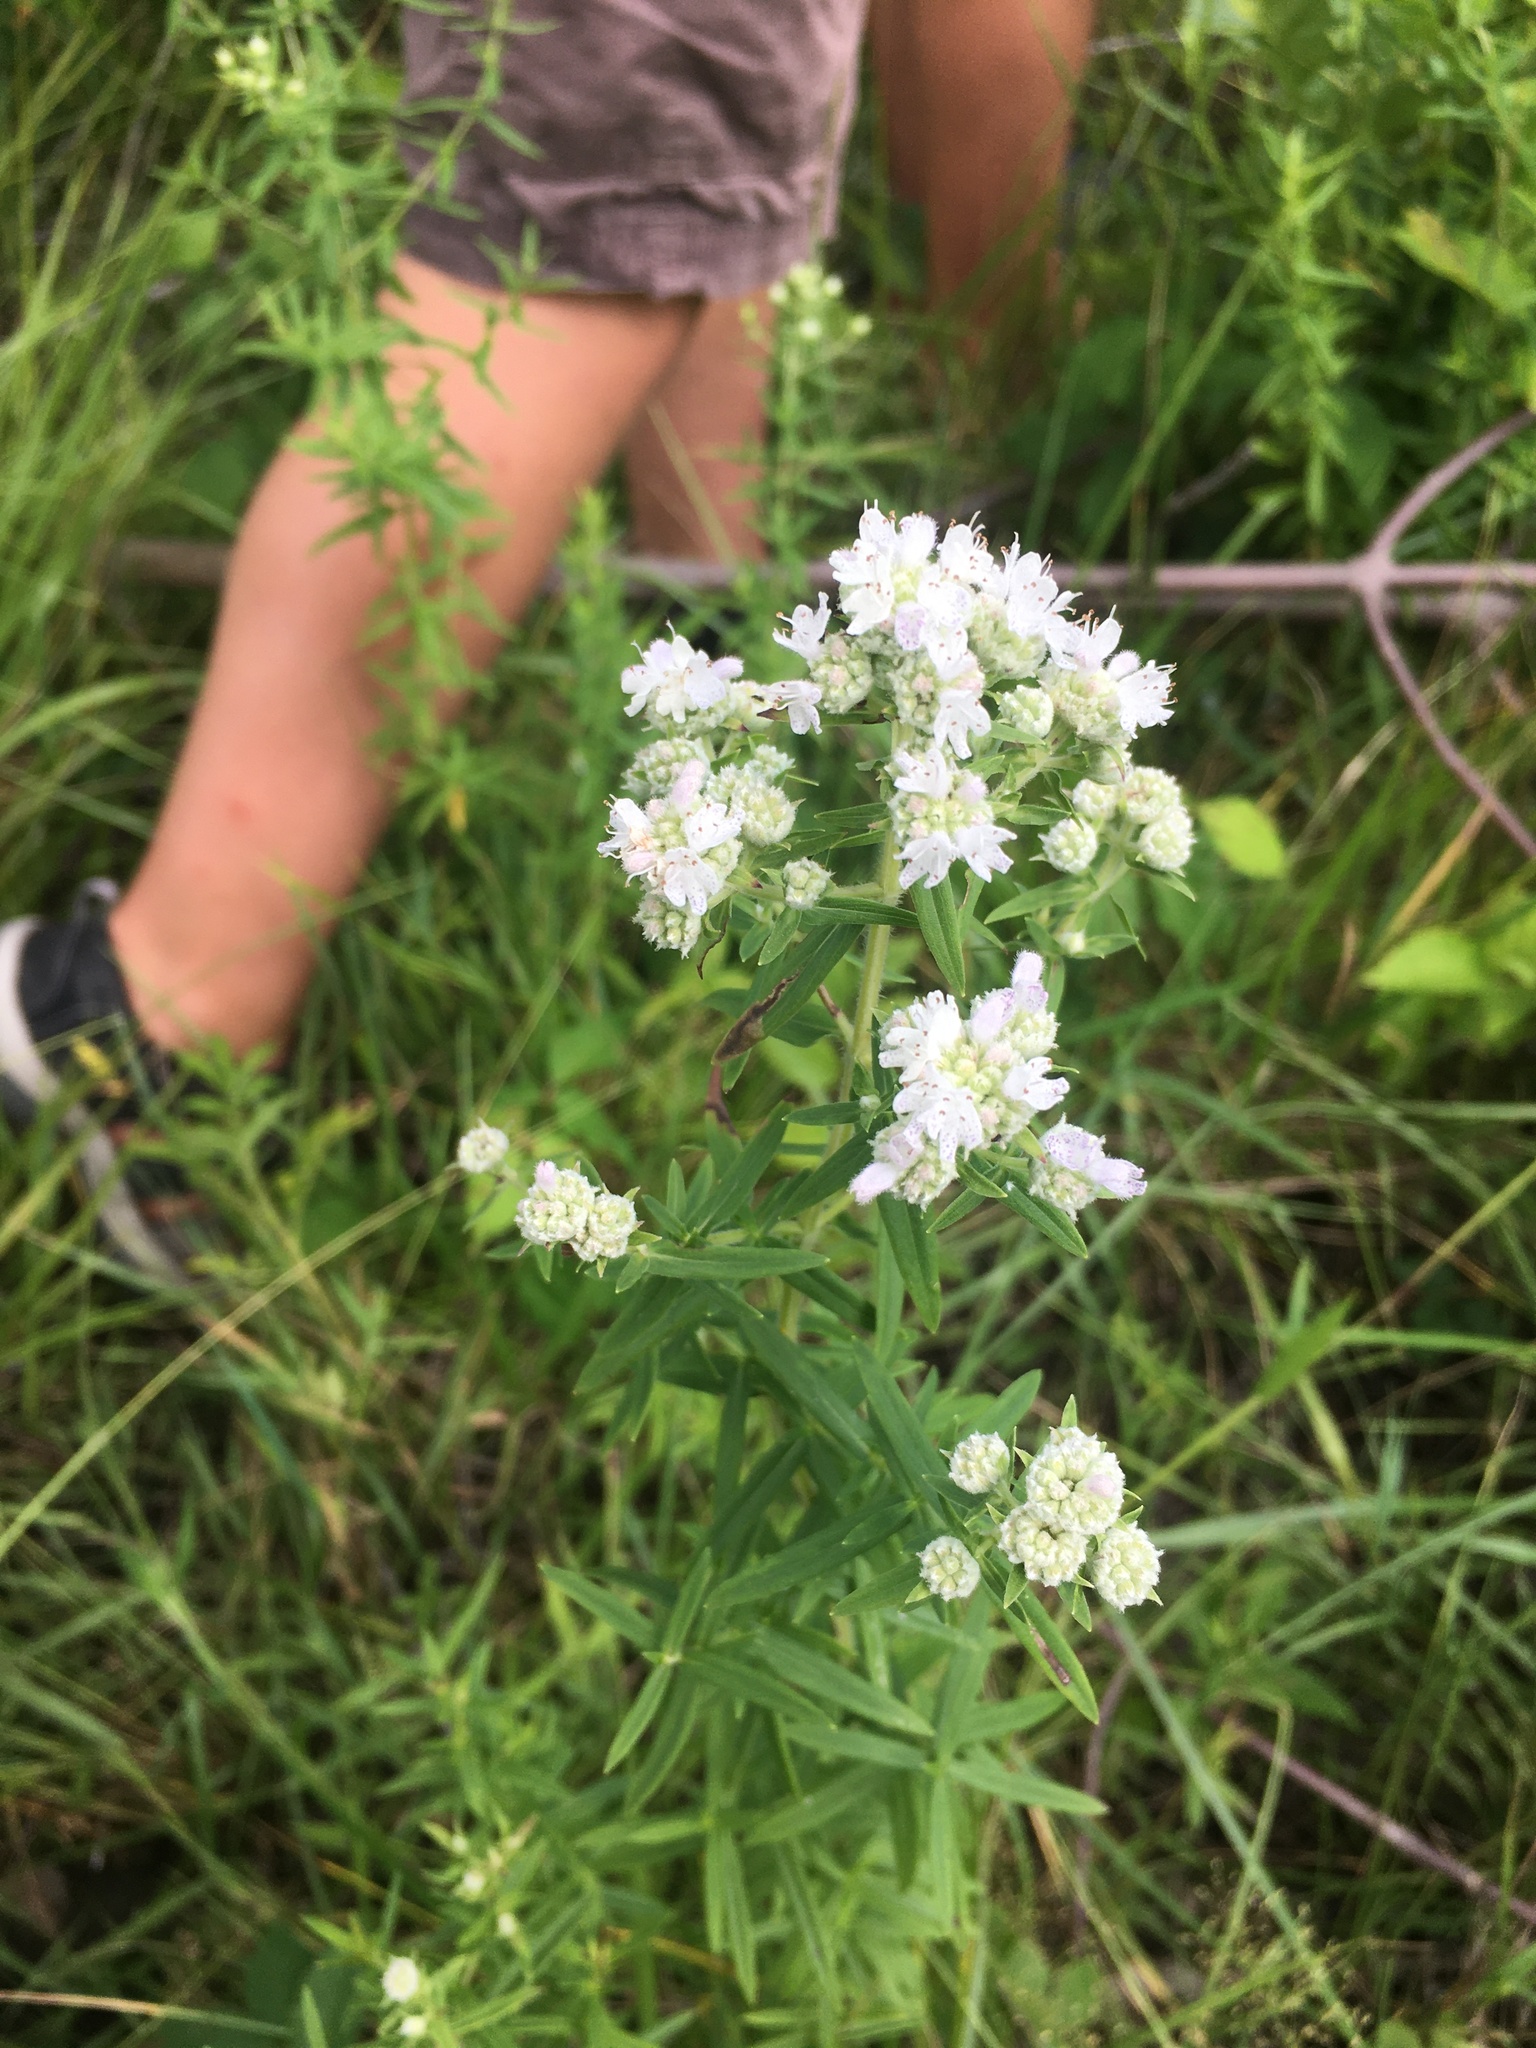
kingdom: Plantae
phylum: Tracheophyta
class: Magnoliopsida
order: Lamiales
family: Lamiaceae
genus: Pycnanthemum
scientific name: Pycnanthemum virginianum
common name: Virginia mountain-mint
